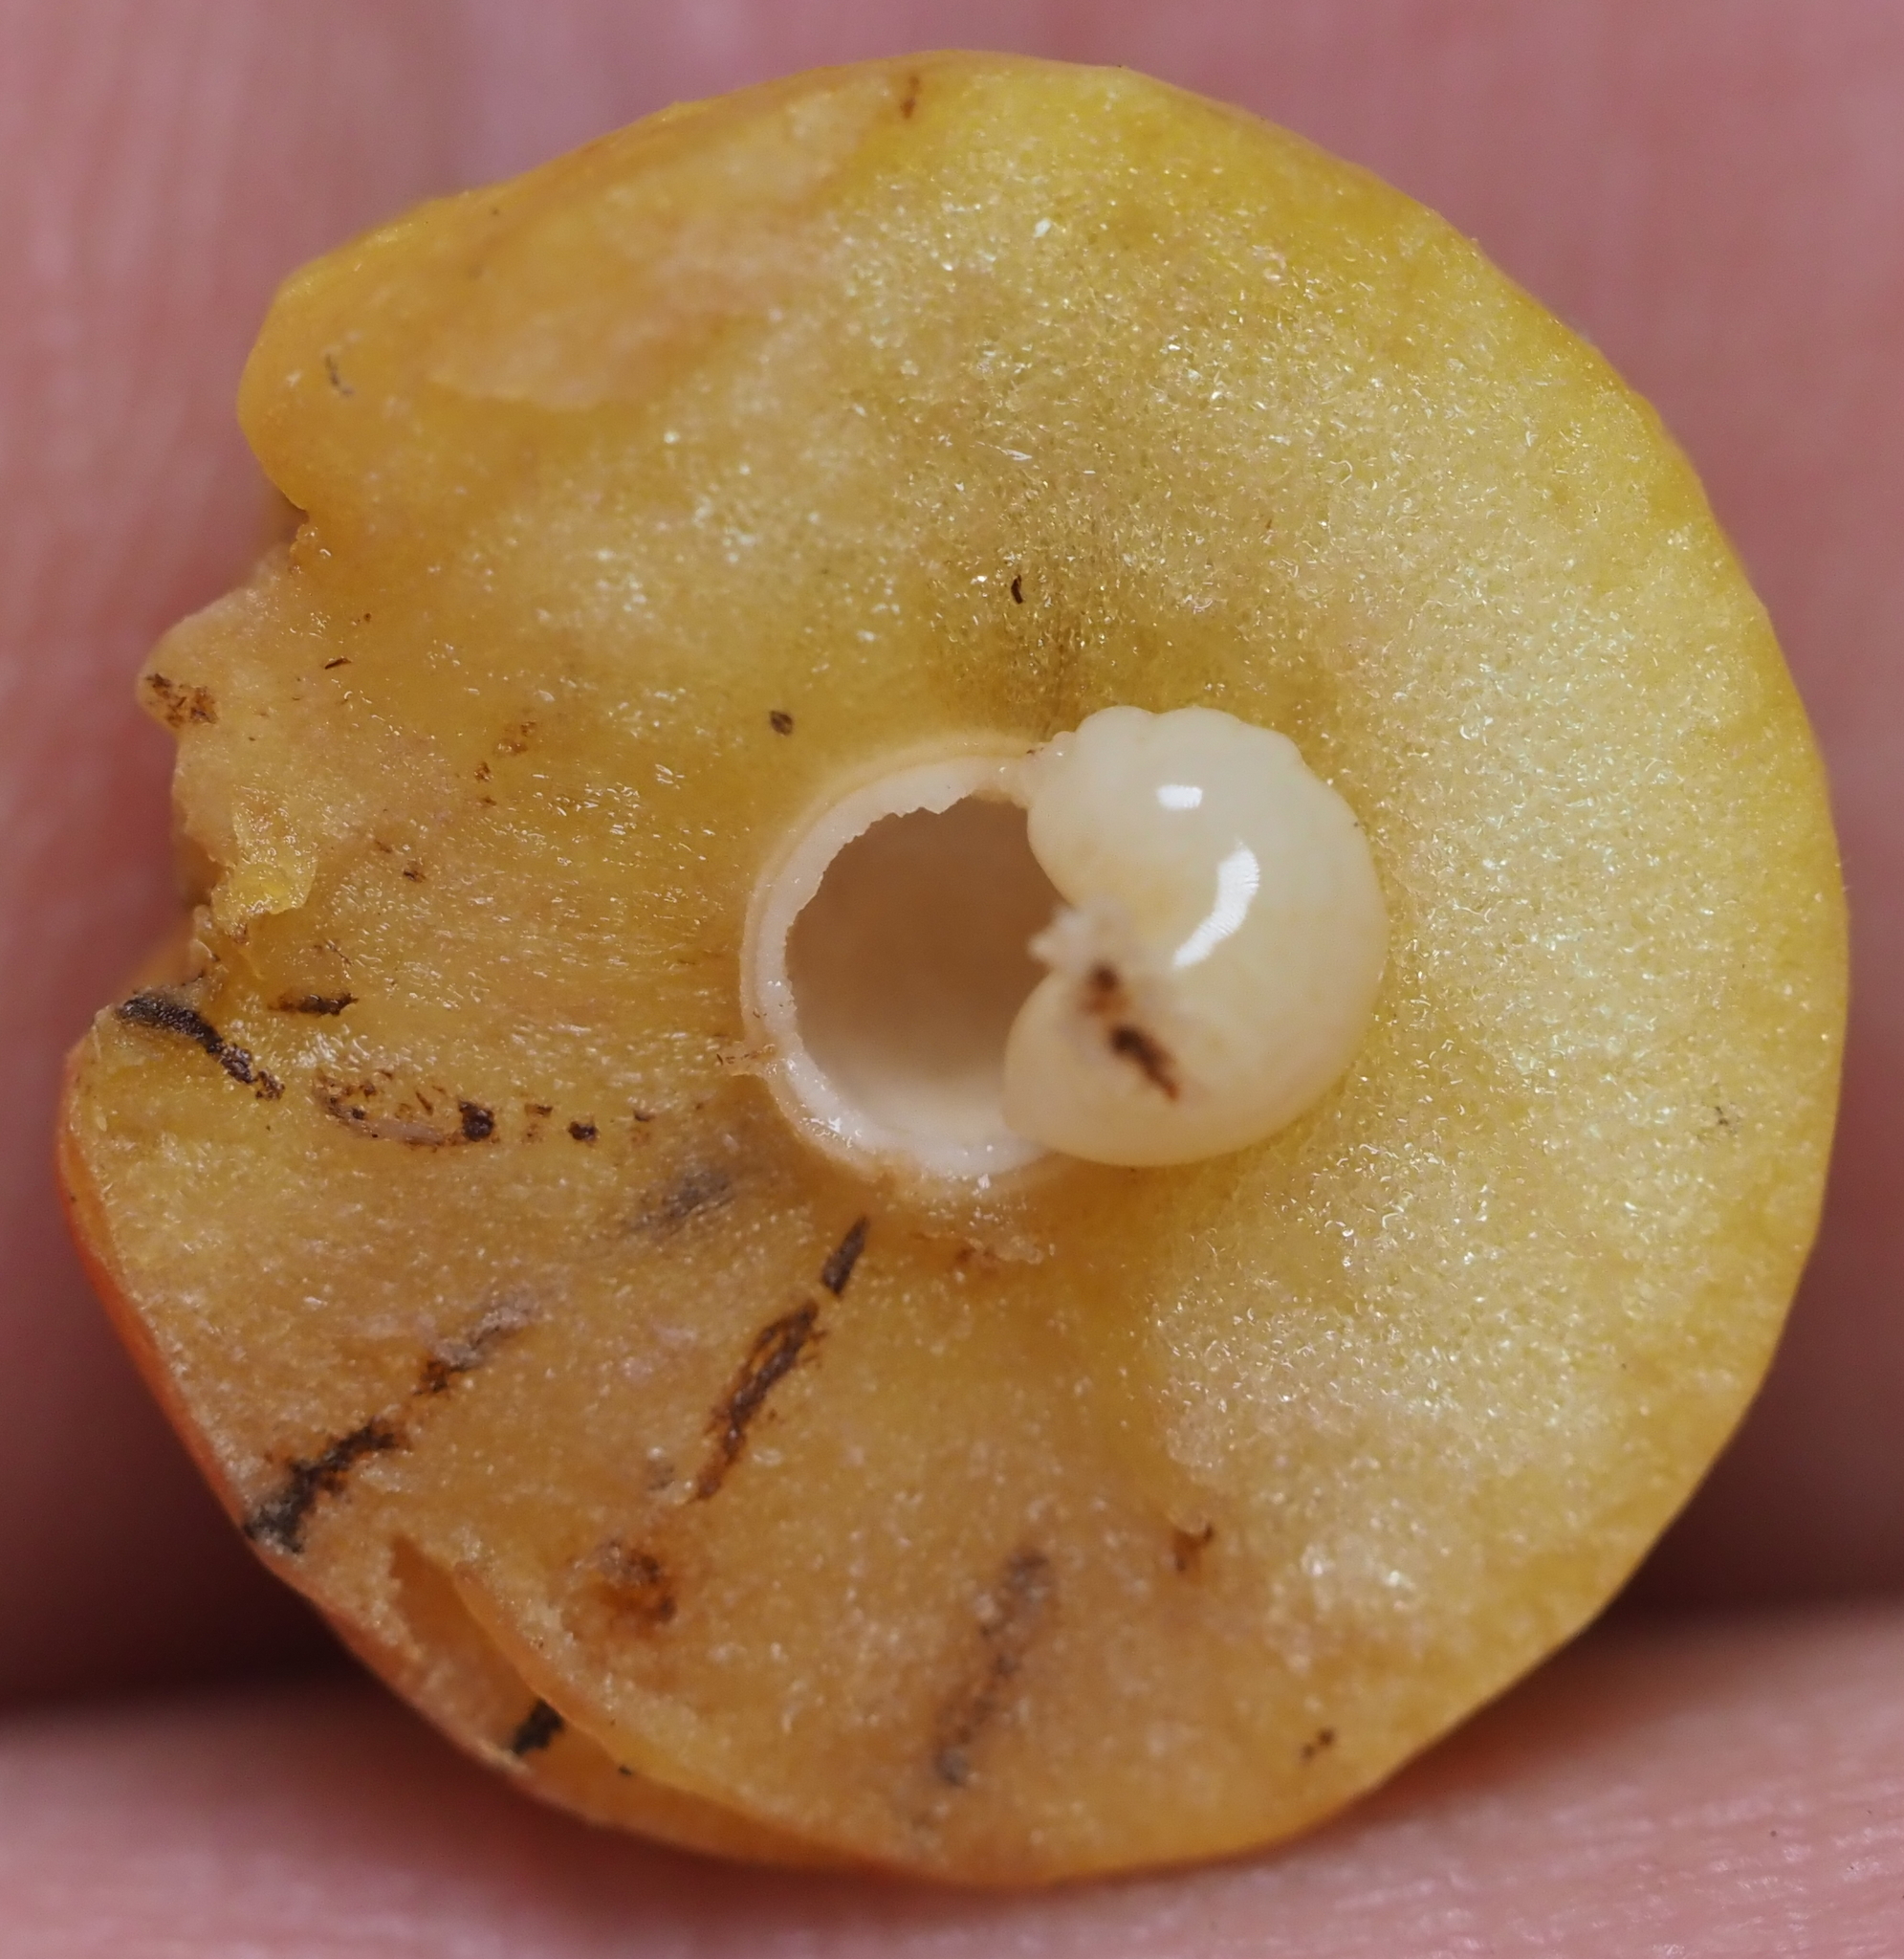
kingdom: Animalia
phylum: Arthropoda
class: Insecta
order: Hymenoptera
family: Cynipidae
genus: Disholcaspis
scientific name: Disholcaspis quercusglobulus
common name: Round bullet gall wasp
